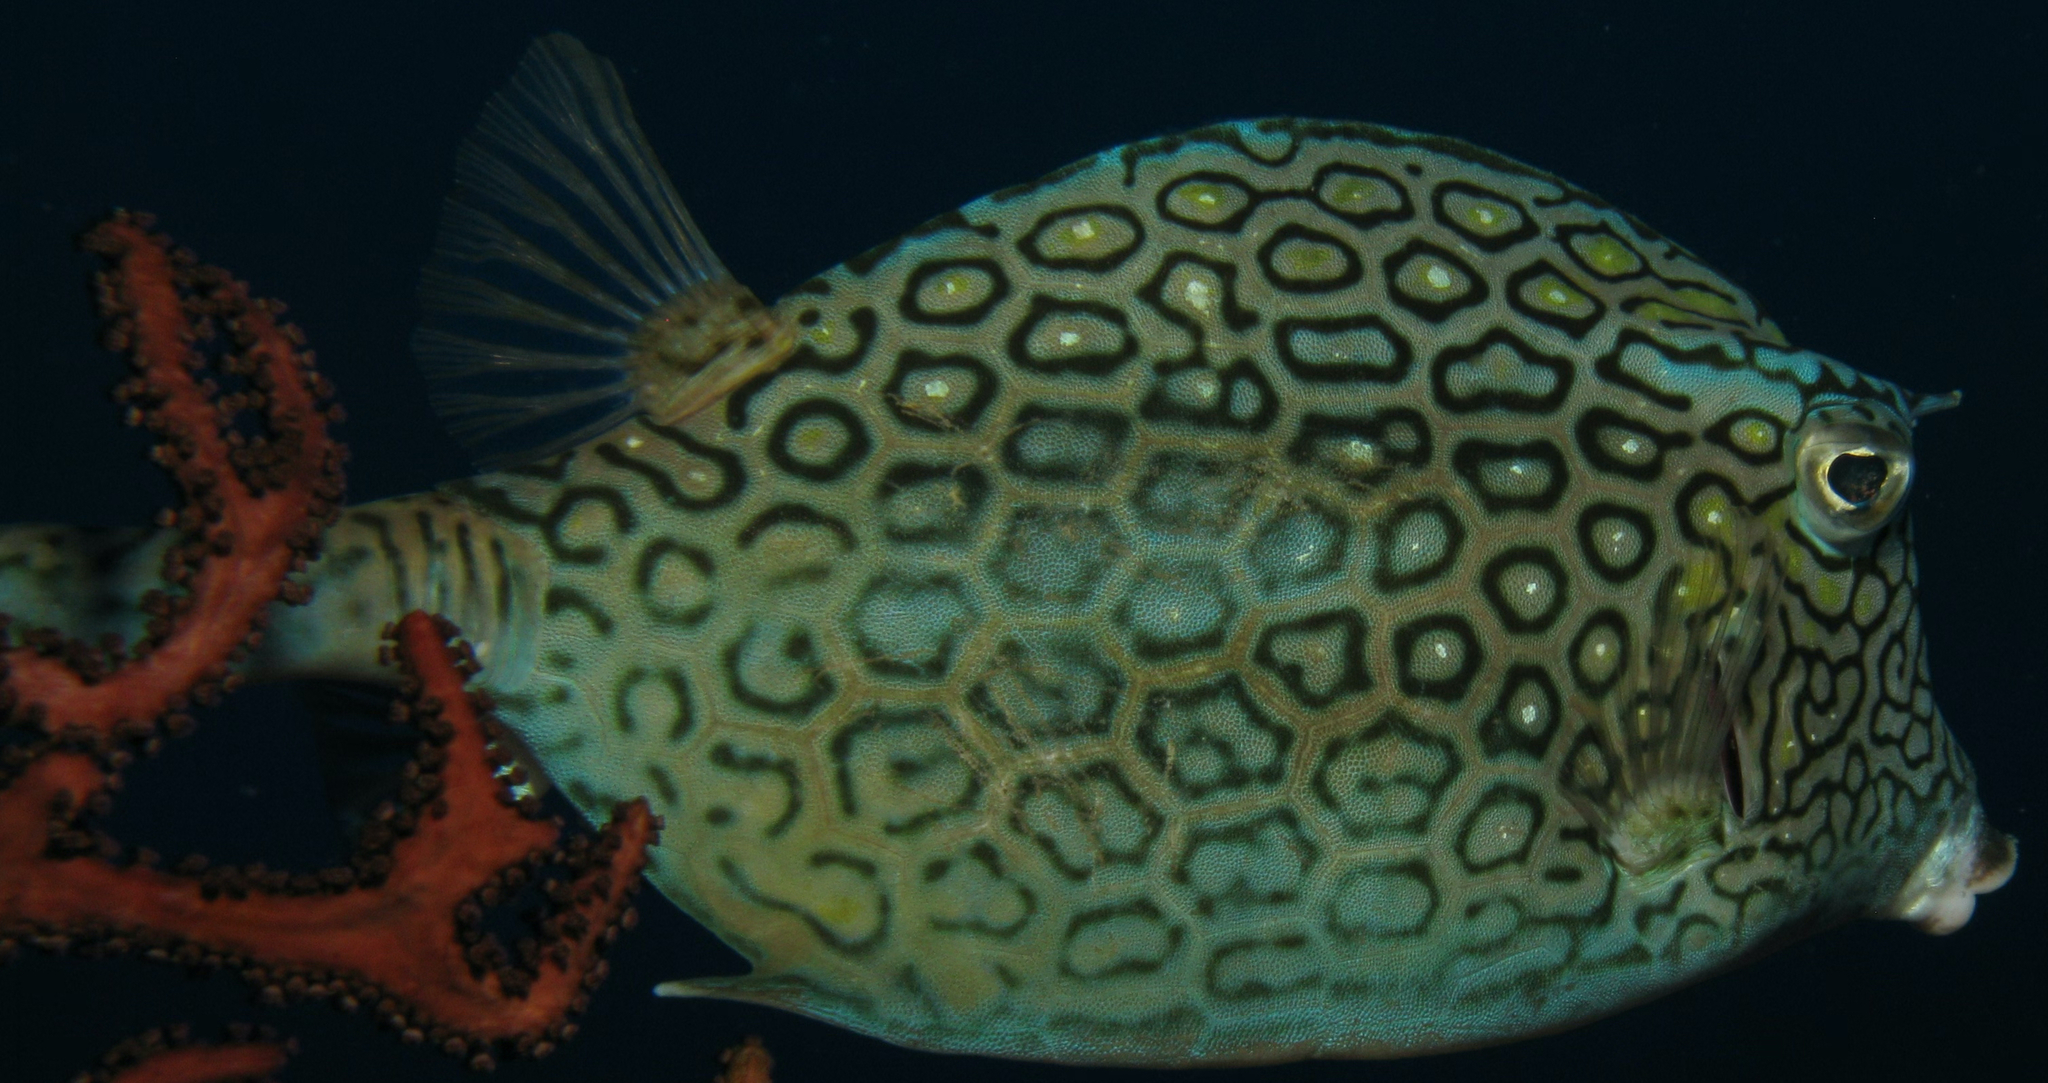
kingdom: Animalia
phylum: Chordata
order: Tetraodontiformes
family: Ostraciidae
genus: Acanthostracion
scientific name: Acanthostracion polygonius
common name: Honeycomb cowfish
